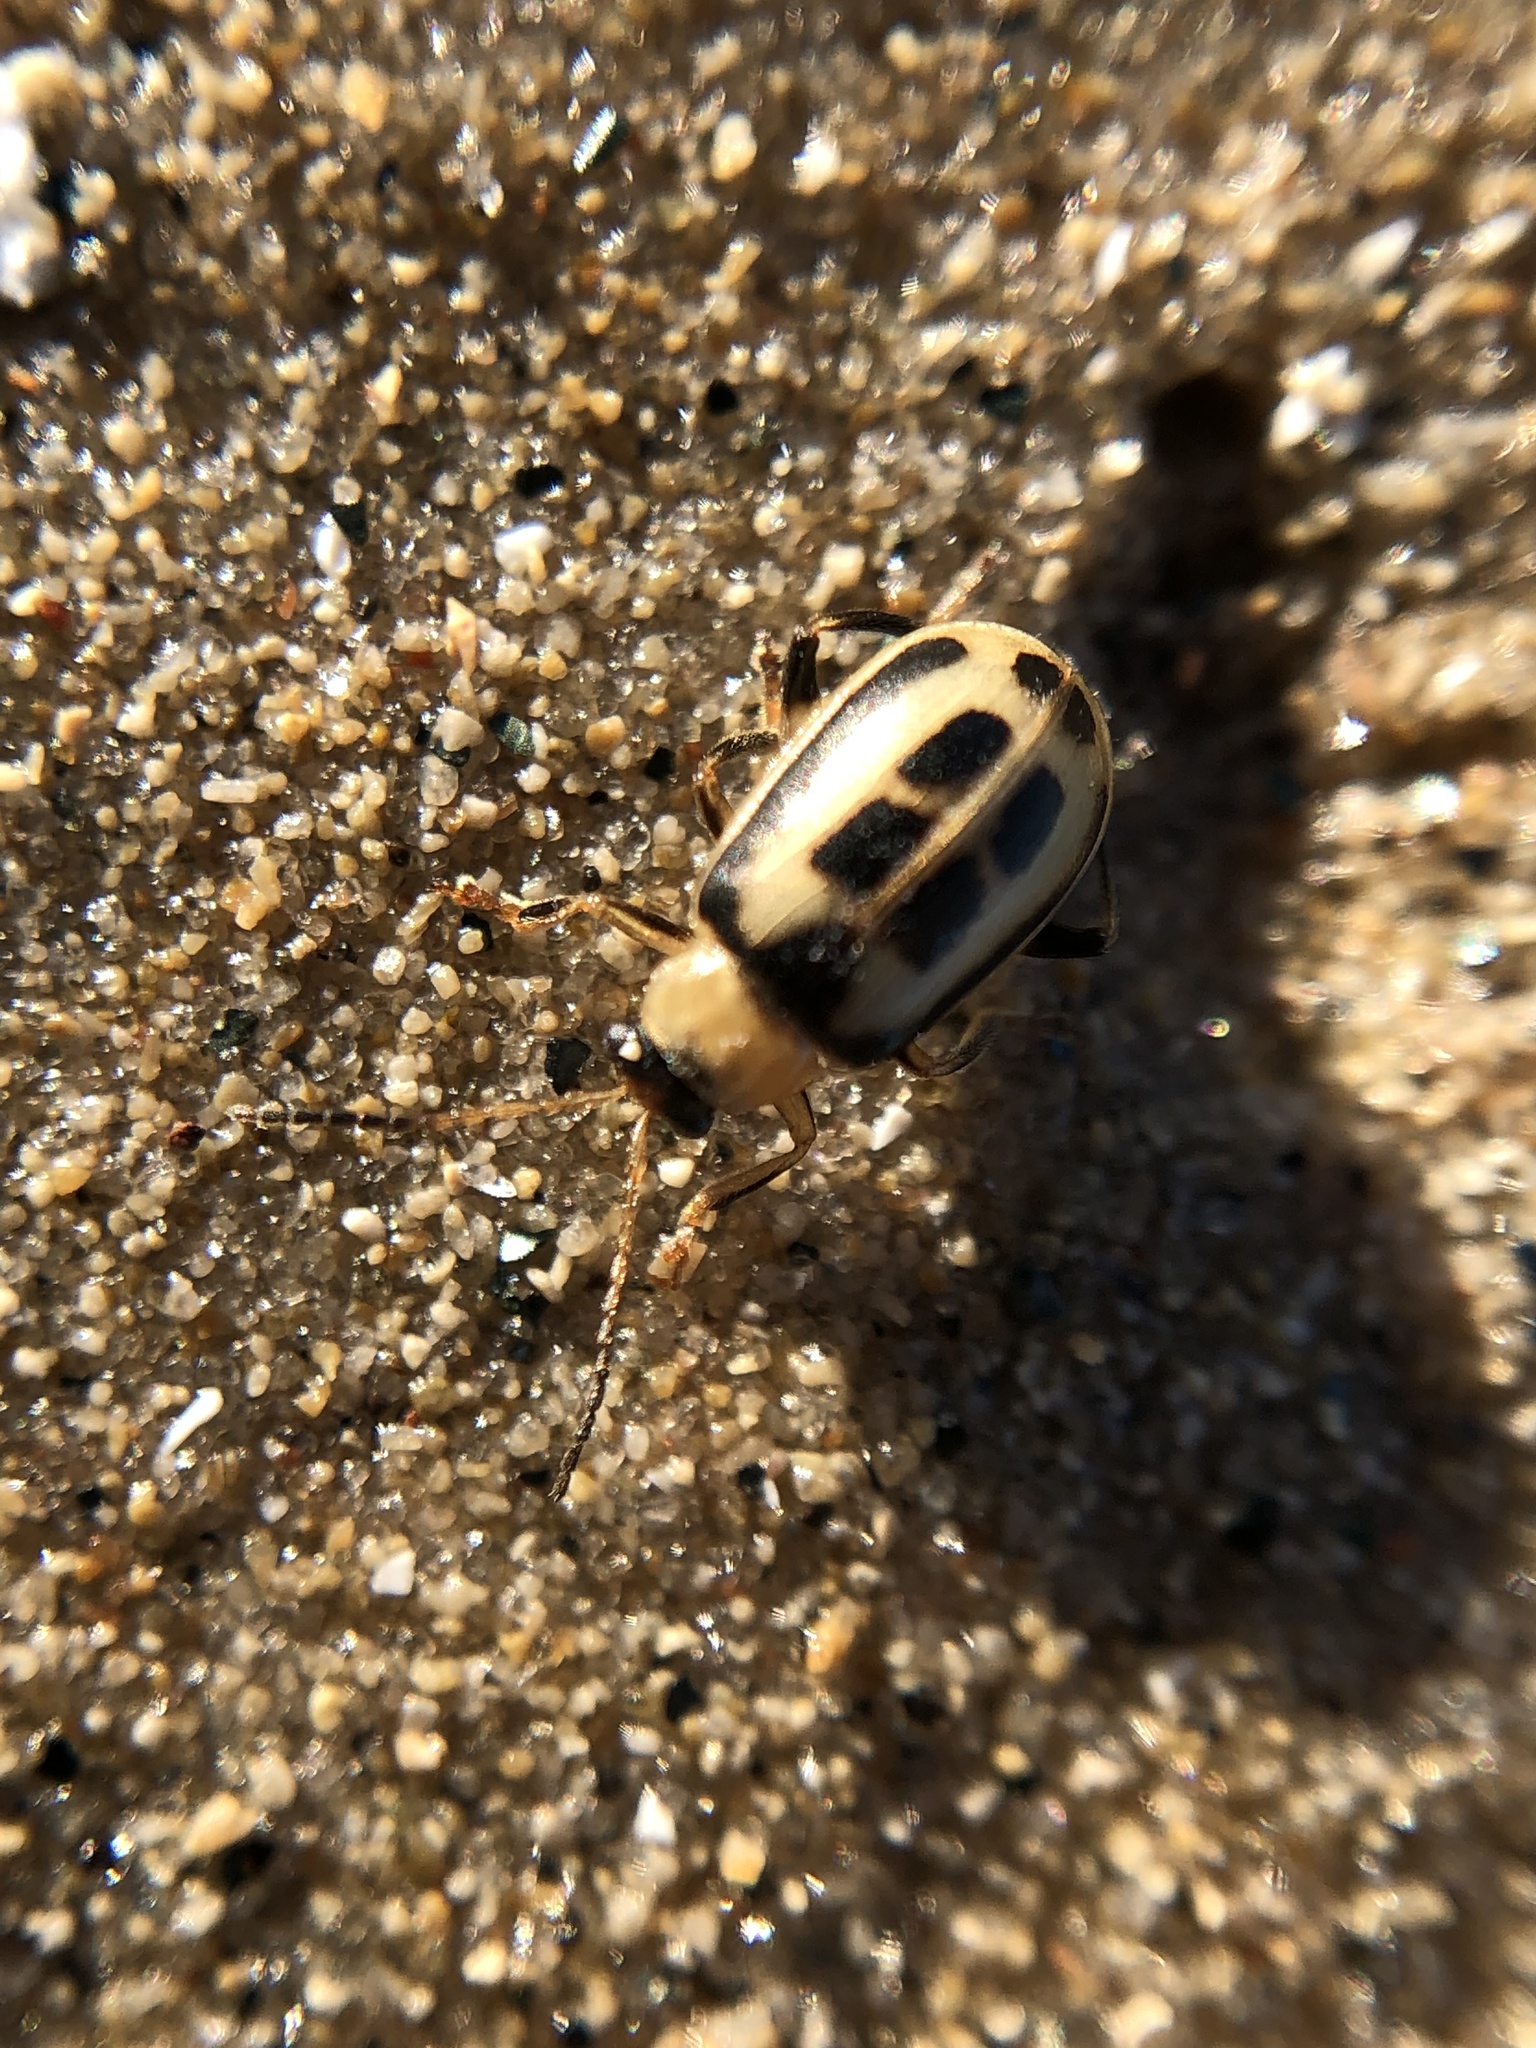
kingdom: Animalia
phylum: Arthropoda
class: Insecta
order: Coleoptera
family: Chrysomelidae
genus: Cerotoma
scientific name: Cerotoma trifurcata
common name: Bean leaf beetle
